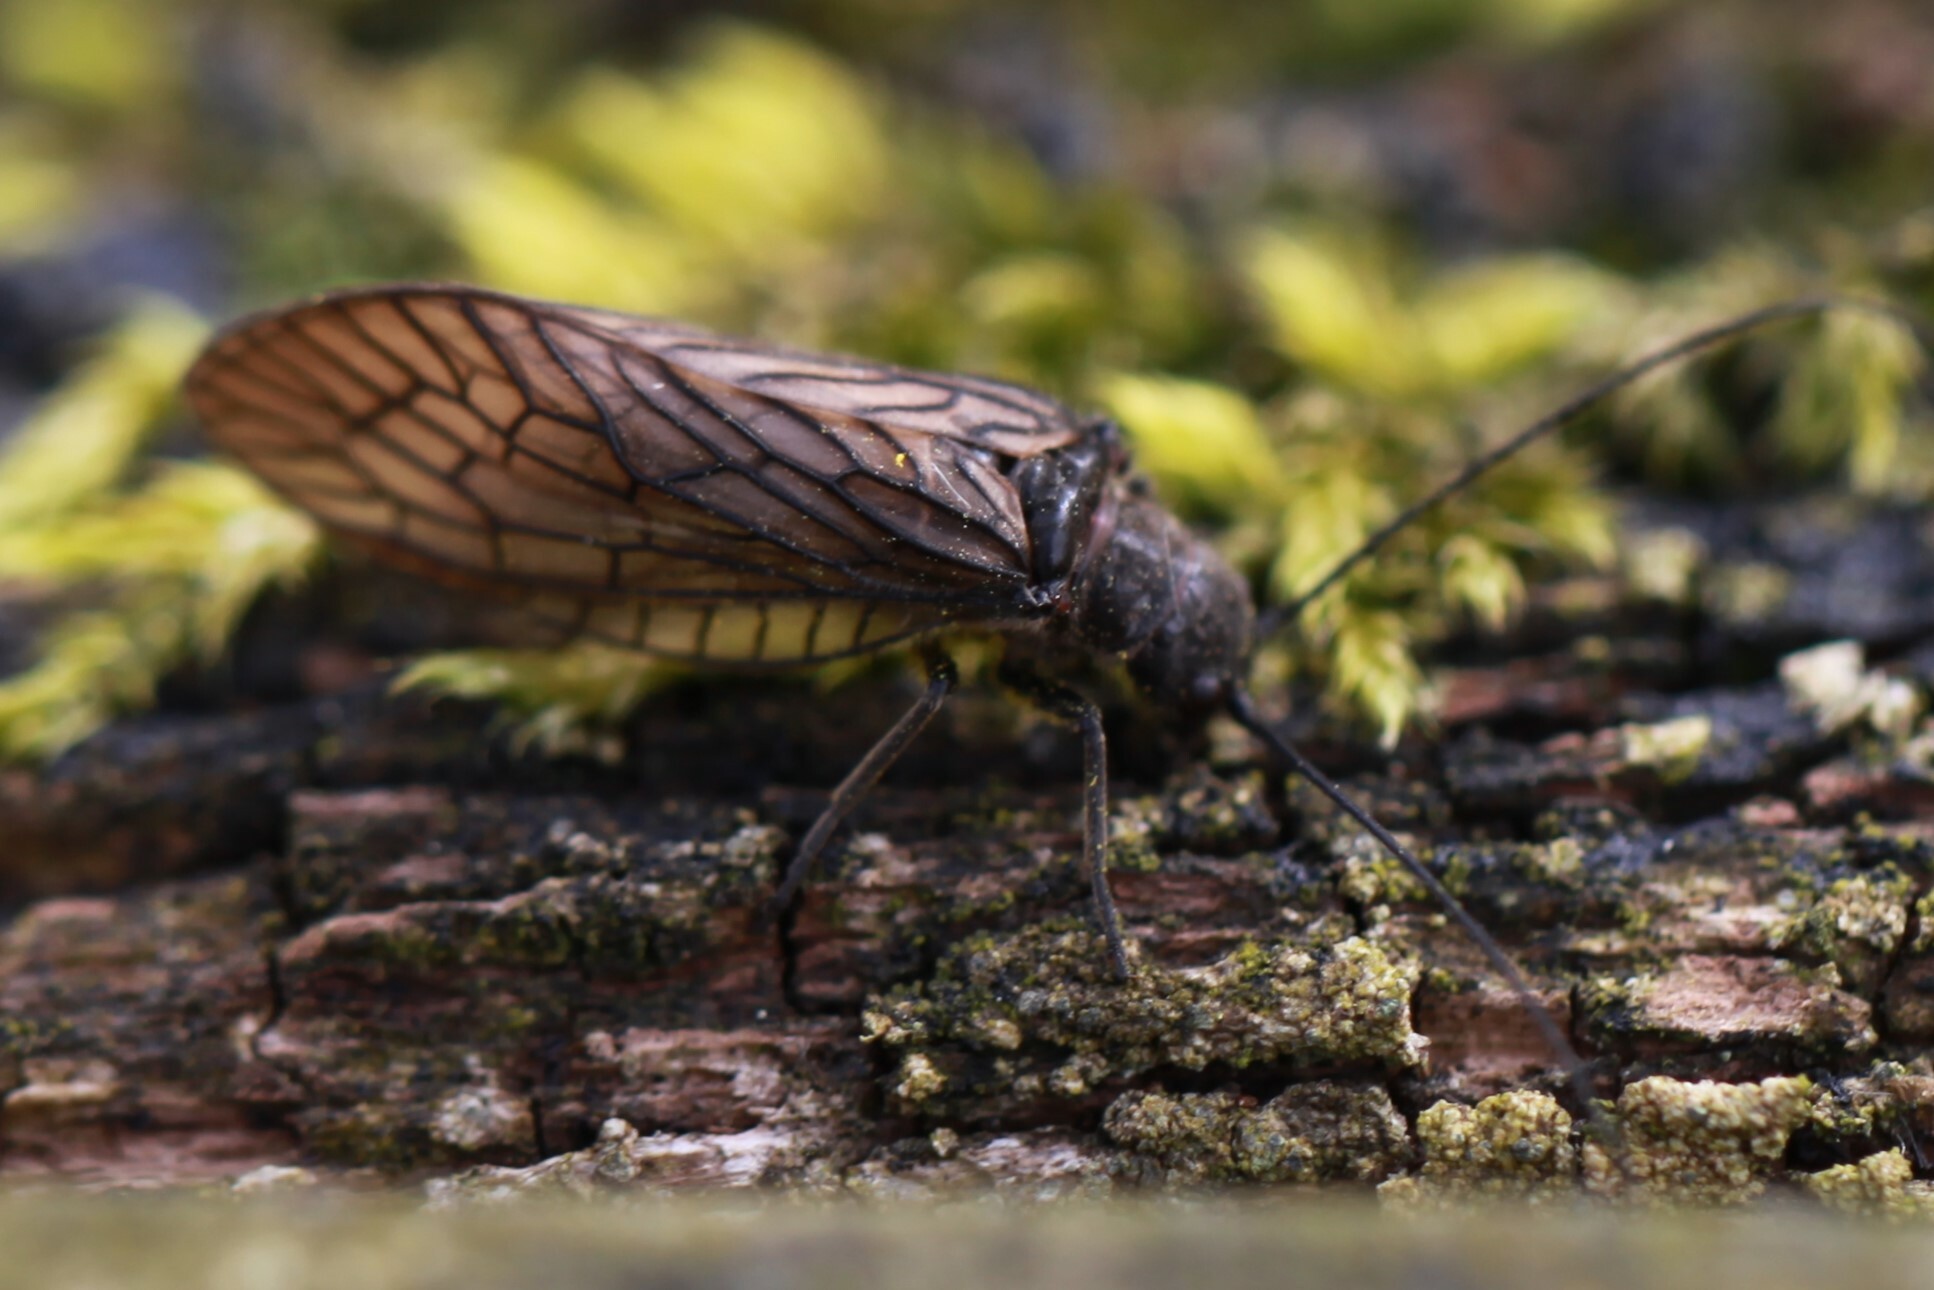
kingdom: Animalia
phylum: Arthropoda
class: Insecta
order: Megaloptera
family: Sialidae
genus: Sialis
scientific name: Sialis
